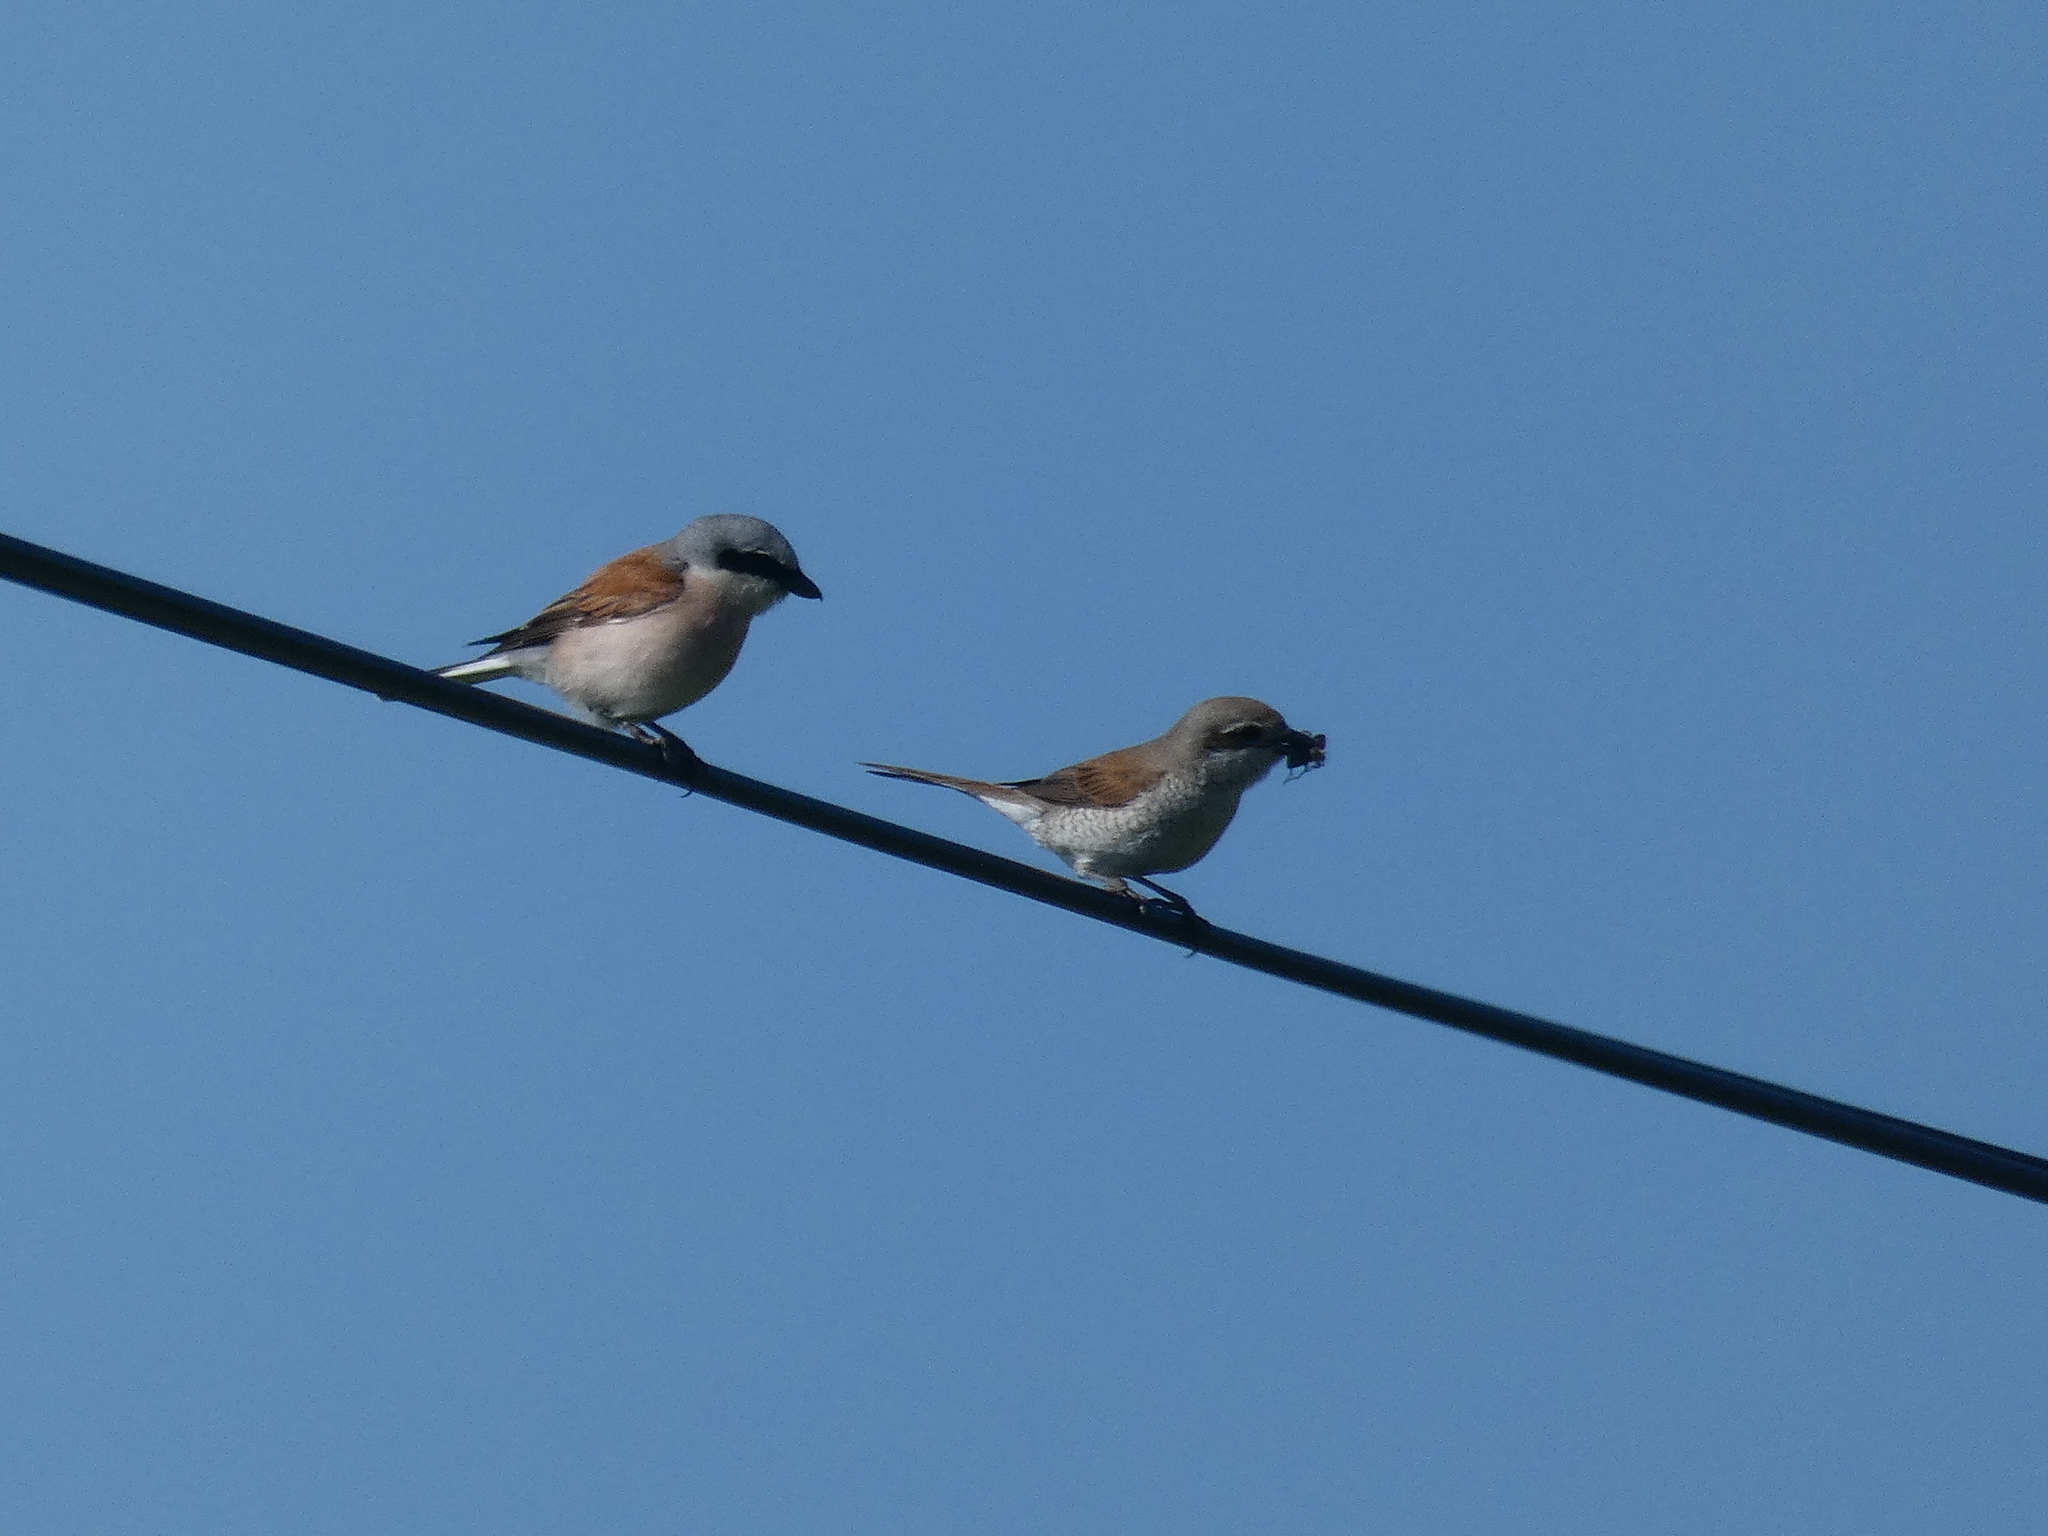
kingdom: Animalia
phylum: Chordata
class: Aves
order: Passeriformes
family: Laniidae
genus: Lanius
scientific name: Lanius collurio
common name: Red-backed shrike
